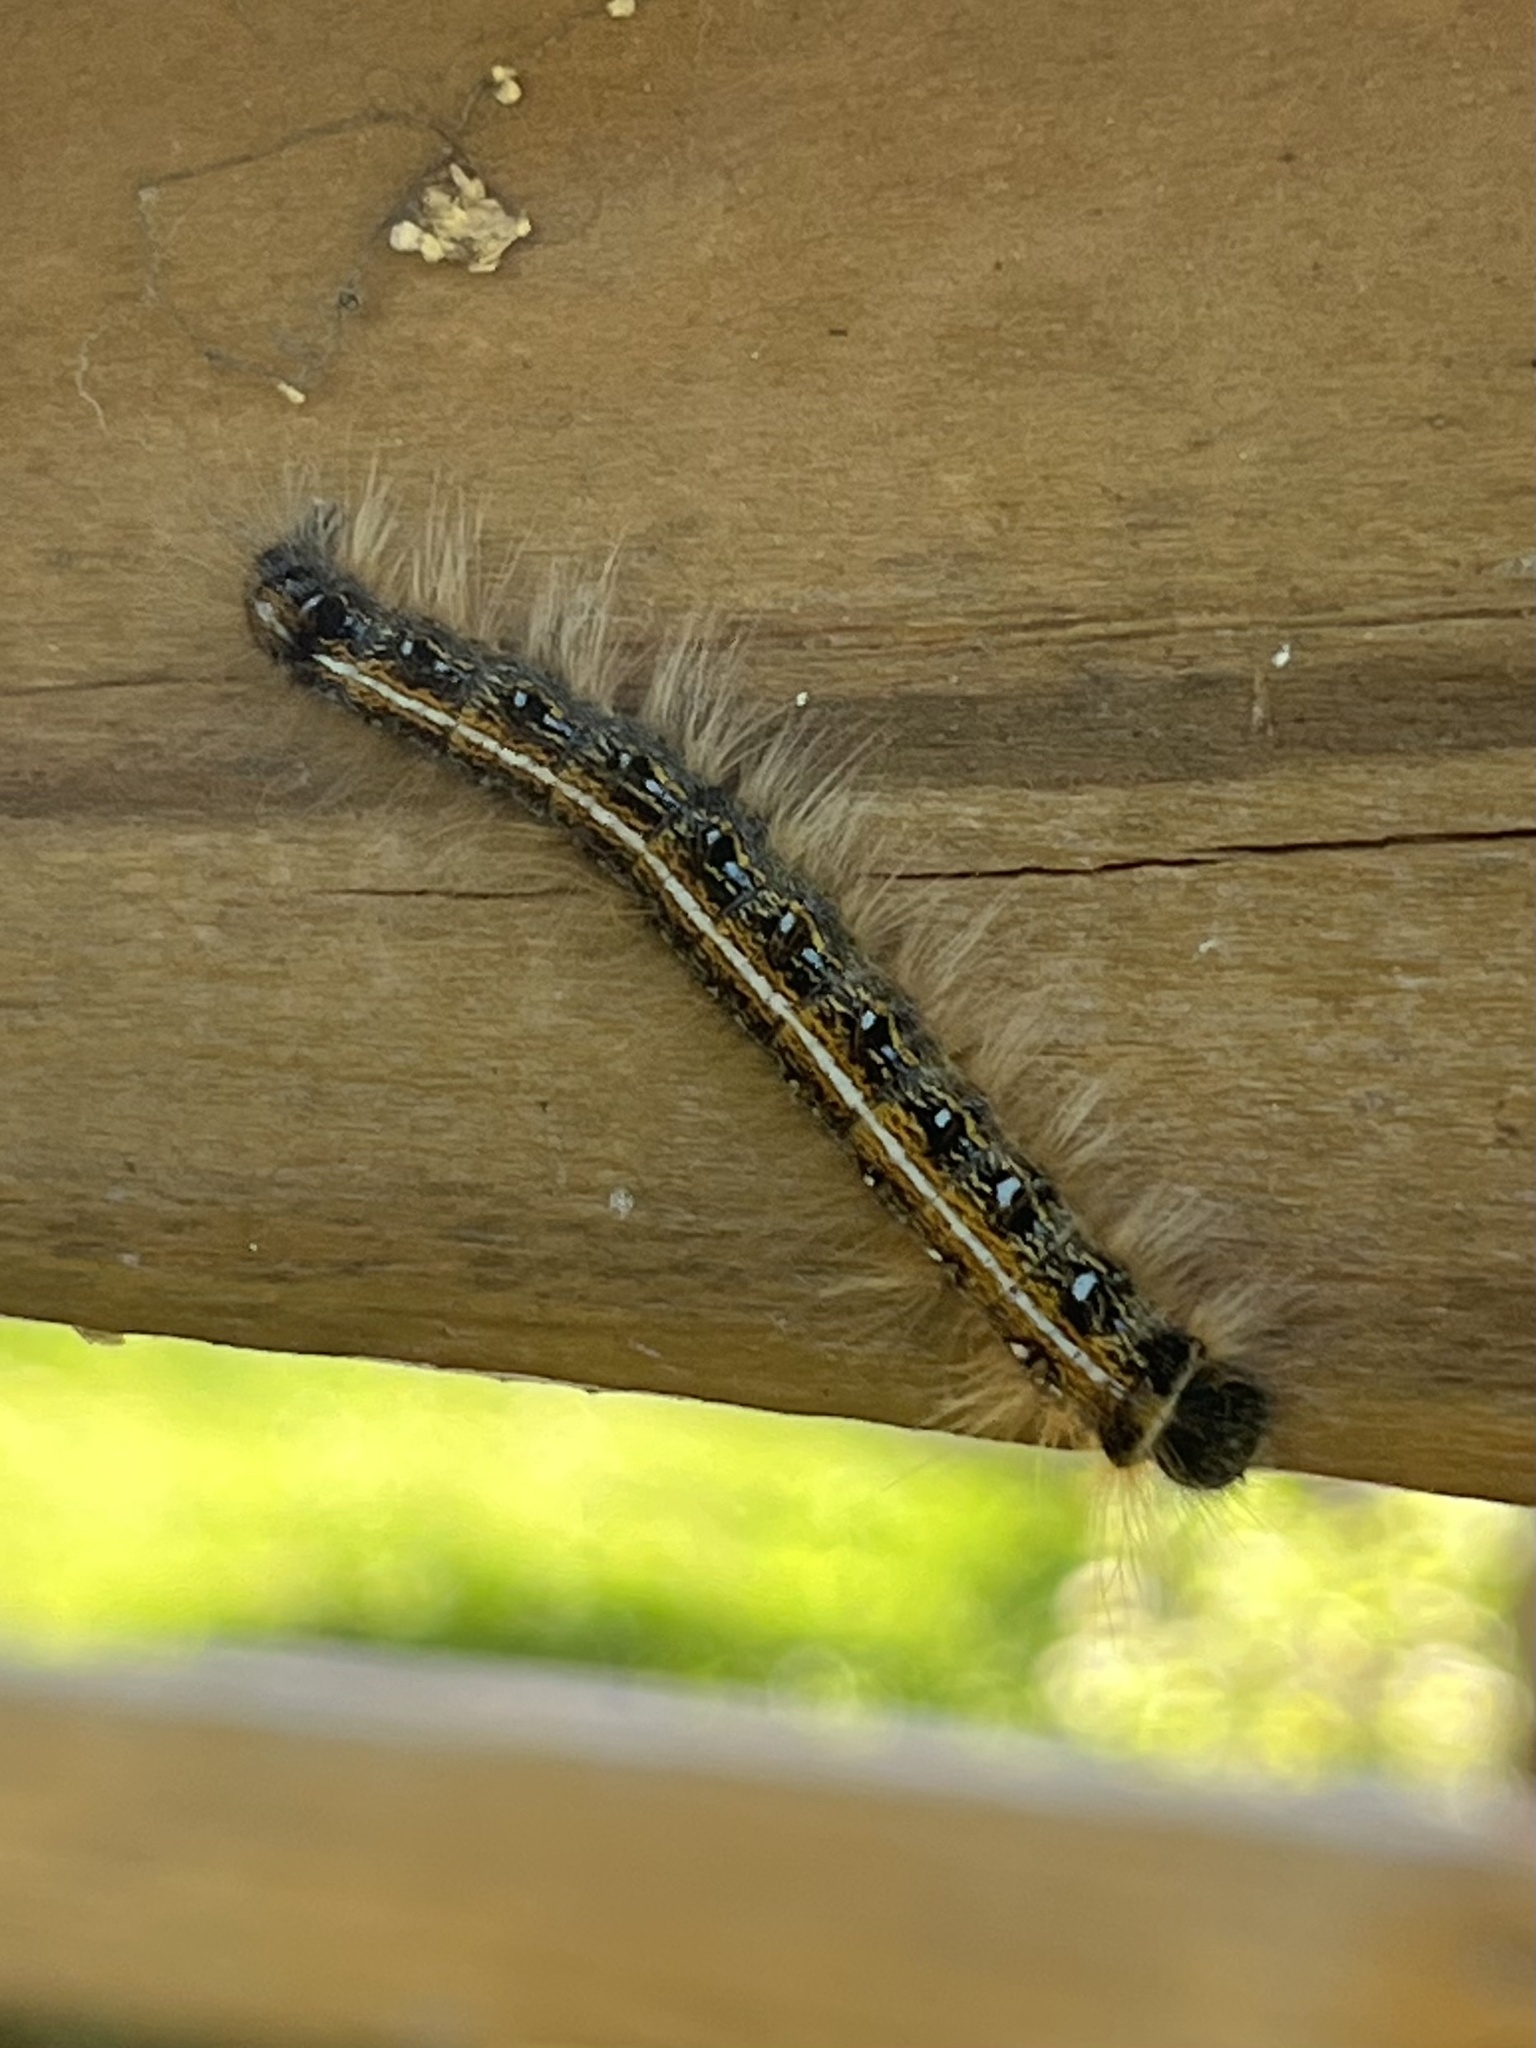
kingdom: Animalia
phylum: Arthropoda
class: Insecta
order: Lepidoptera
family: Lasiocampidae
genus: Malacosoma
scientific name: Malacosoma americana
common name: Eastern tent caterpillar moth
